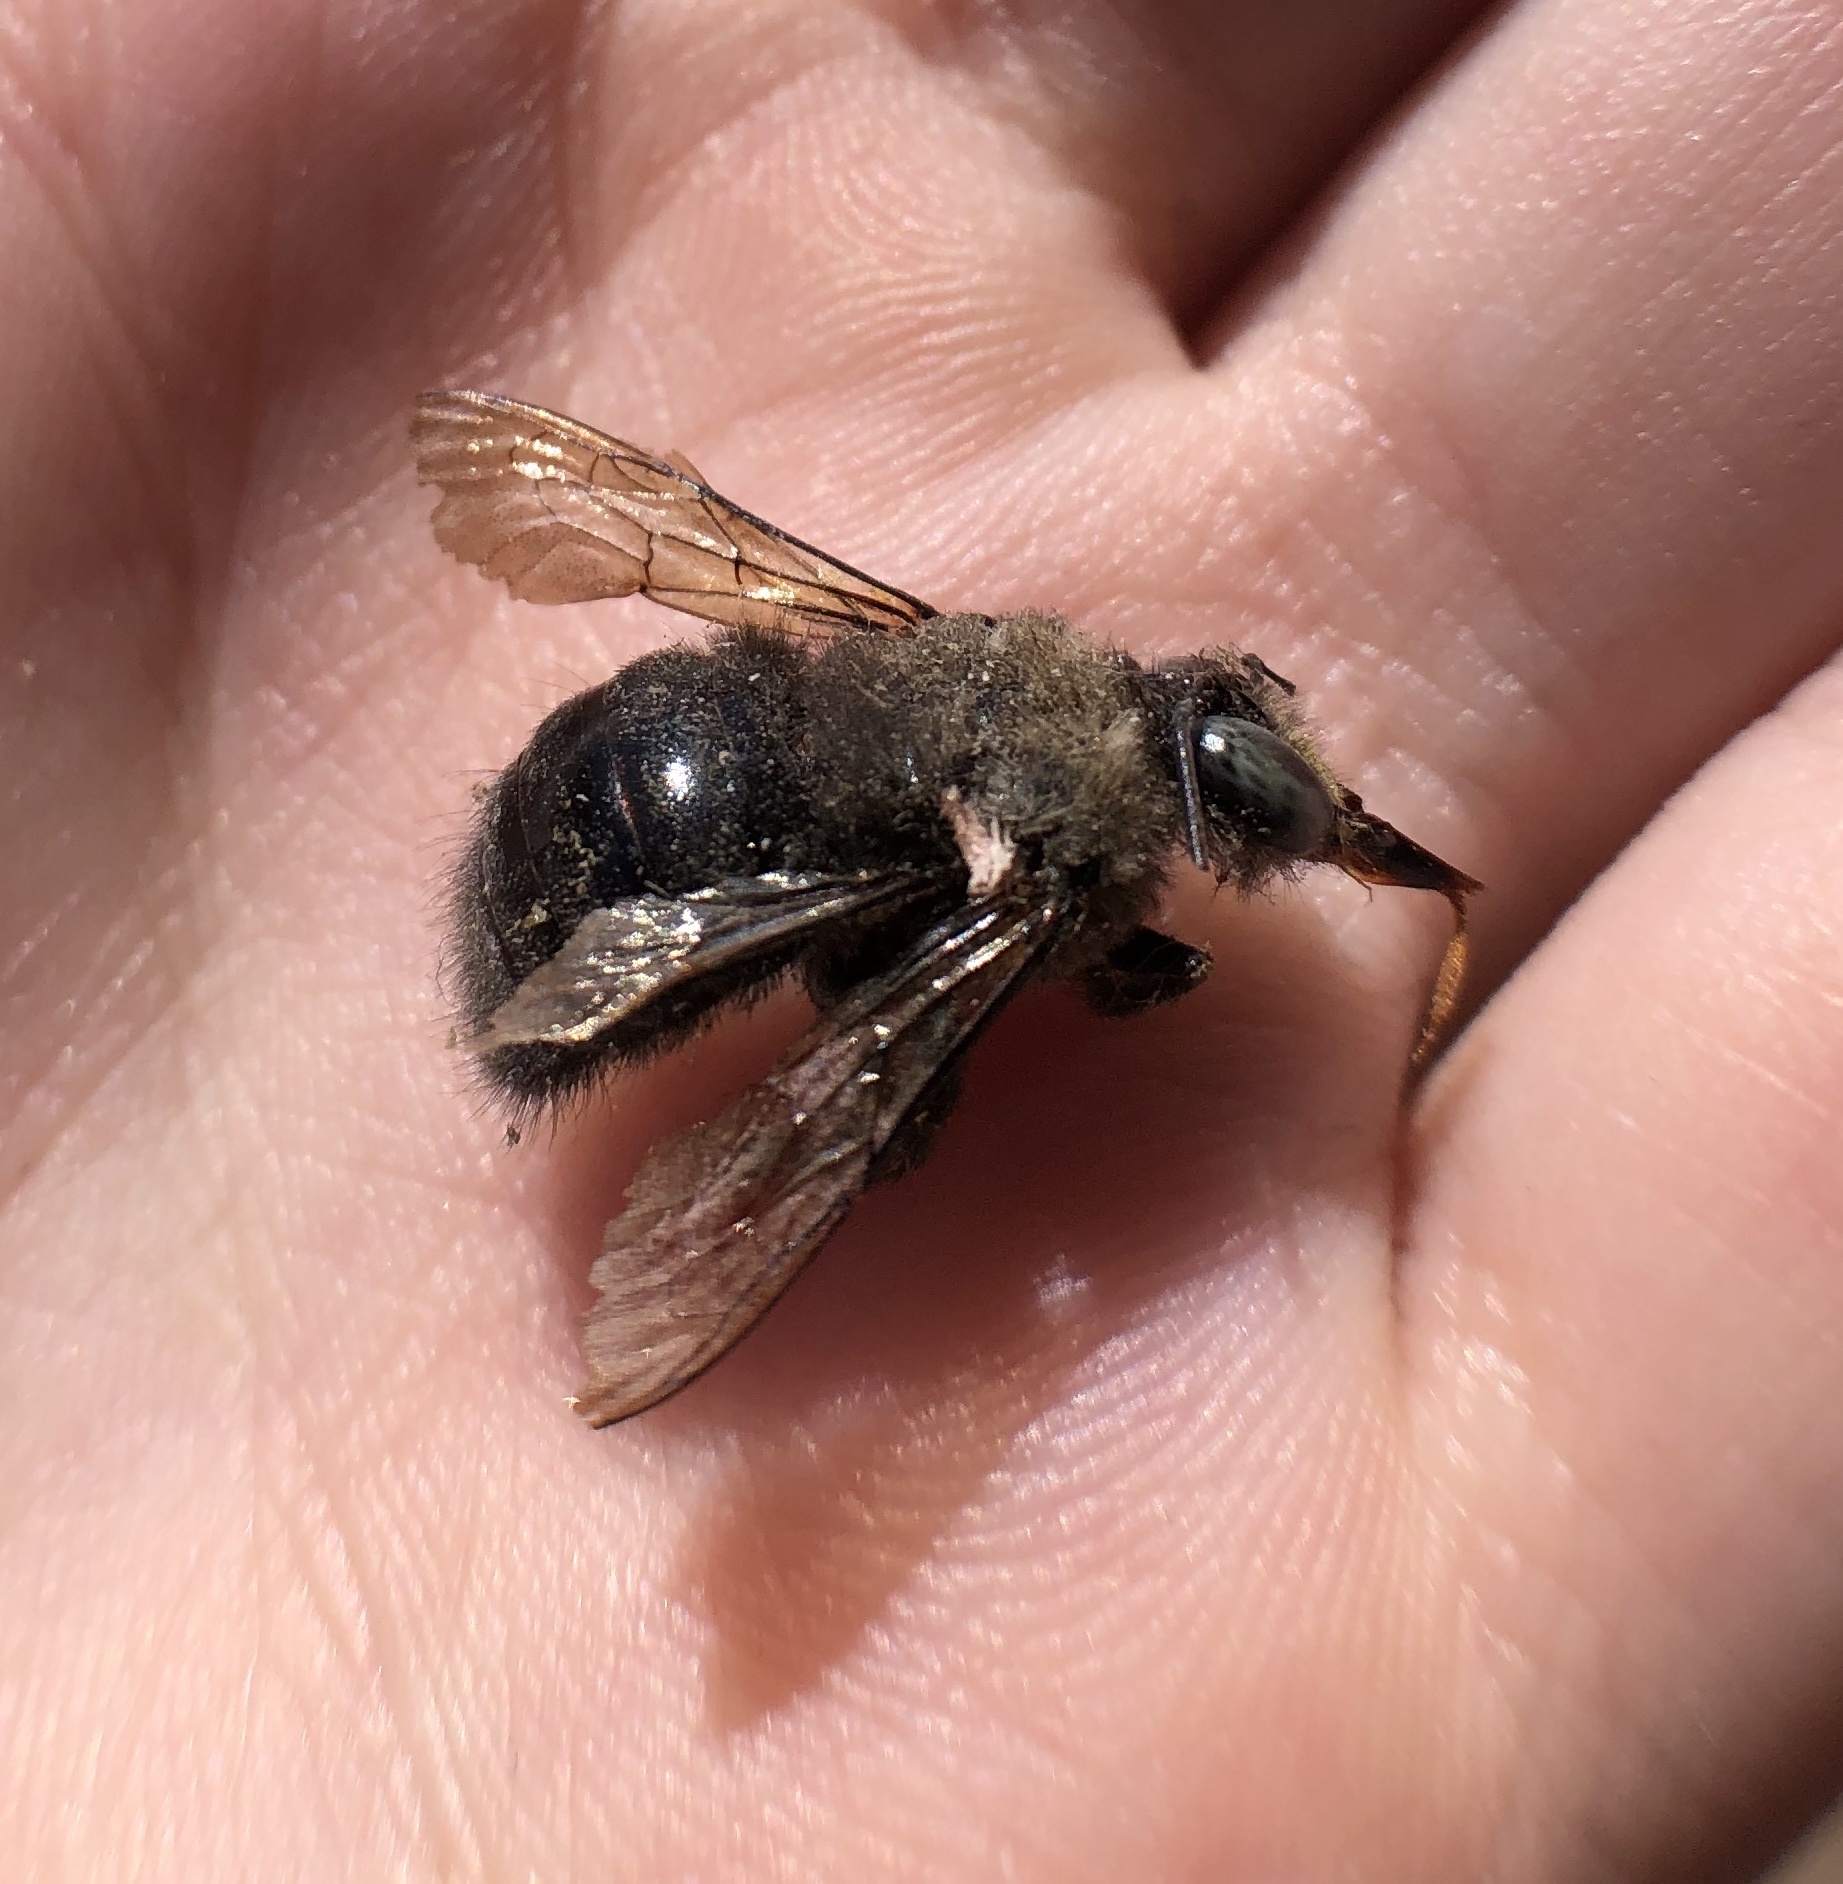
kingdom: Animalia
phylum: Arthropoda
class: Insecta
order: Hymenoptera
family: Apidae
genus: Xylocopa
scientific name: Xylocopa tabaniformis
